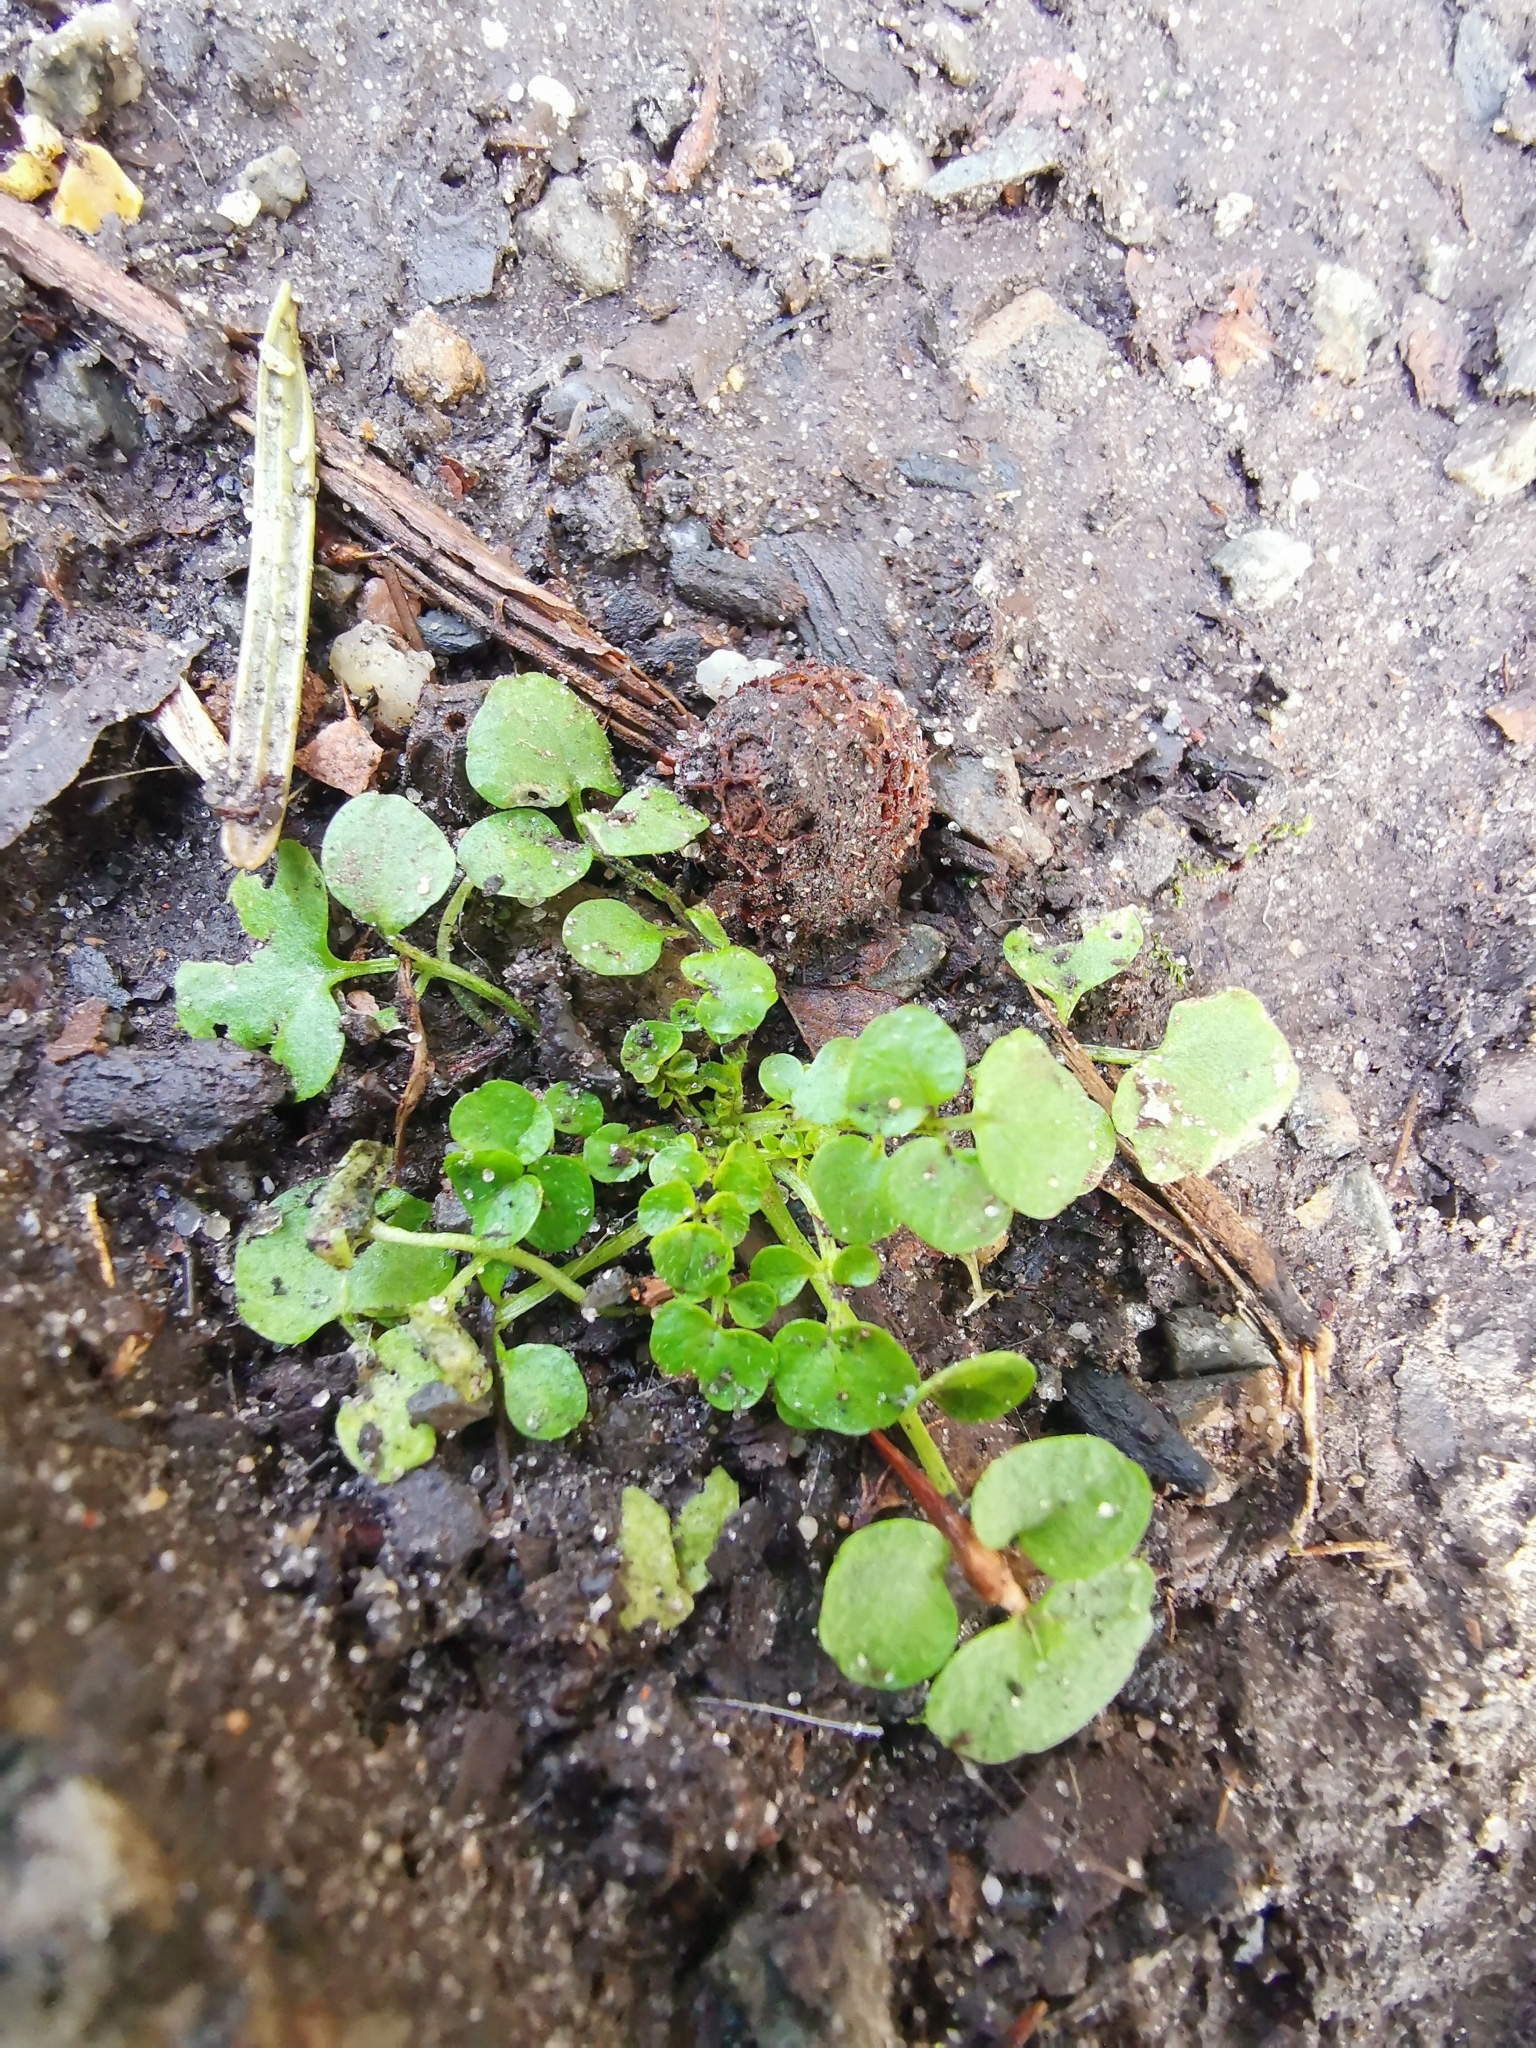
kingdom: Plantae
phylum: Tracheophyta
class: Magnoliopsida
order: Brassicales
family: Brassicaceae
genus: Cardamine
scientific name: Cardamine hirsuta
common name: Hairy bittercress
